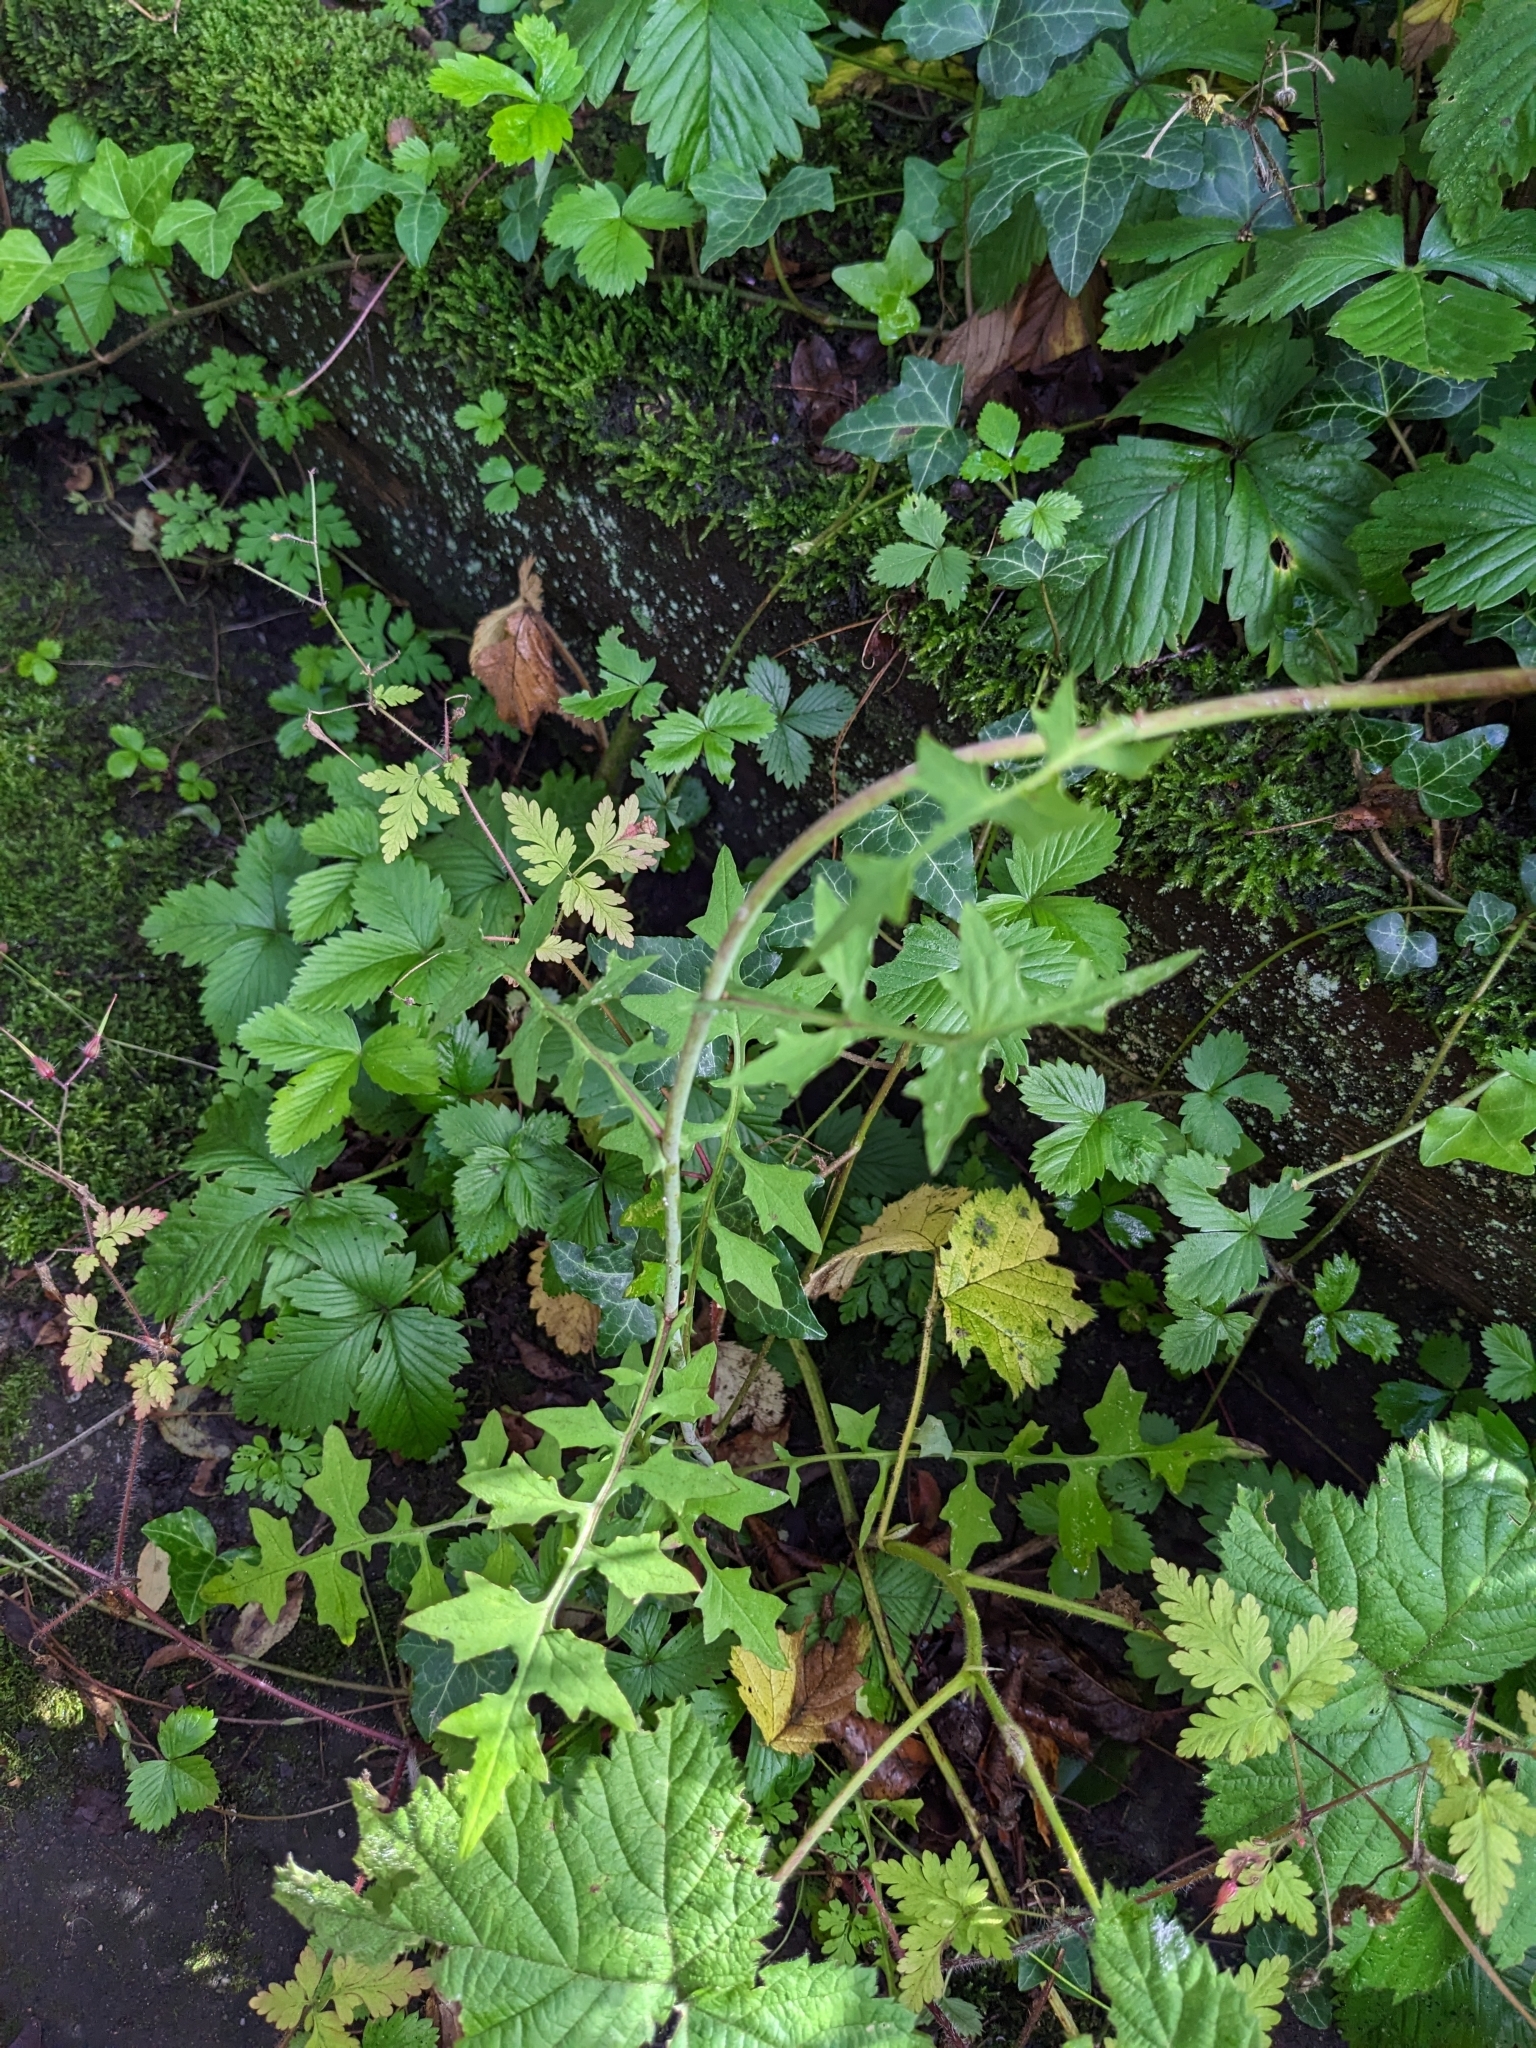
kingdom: Plantae
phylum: Tracheophyta
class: Magnoliopsida
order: Asterales
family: Asteraceae
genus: Mycelis
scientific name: Mycelis muralis
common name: Wall lettuce
